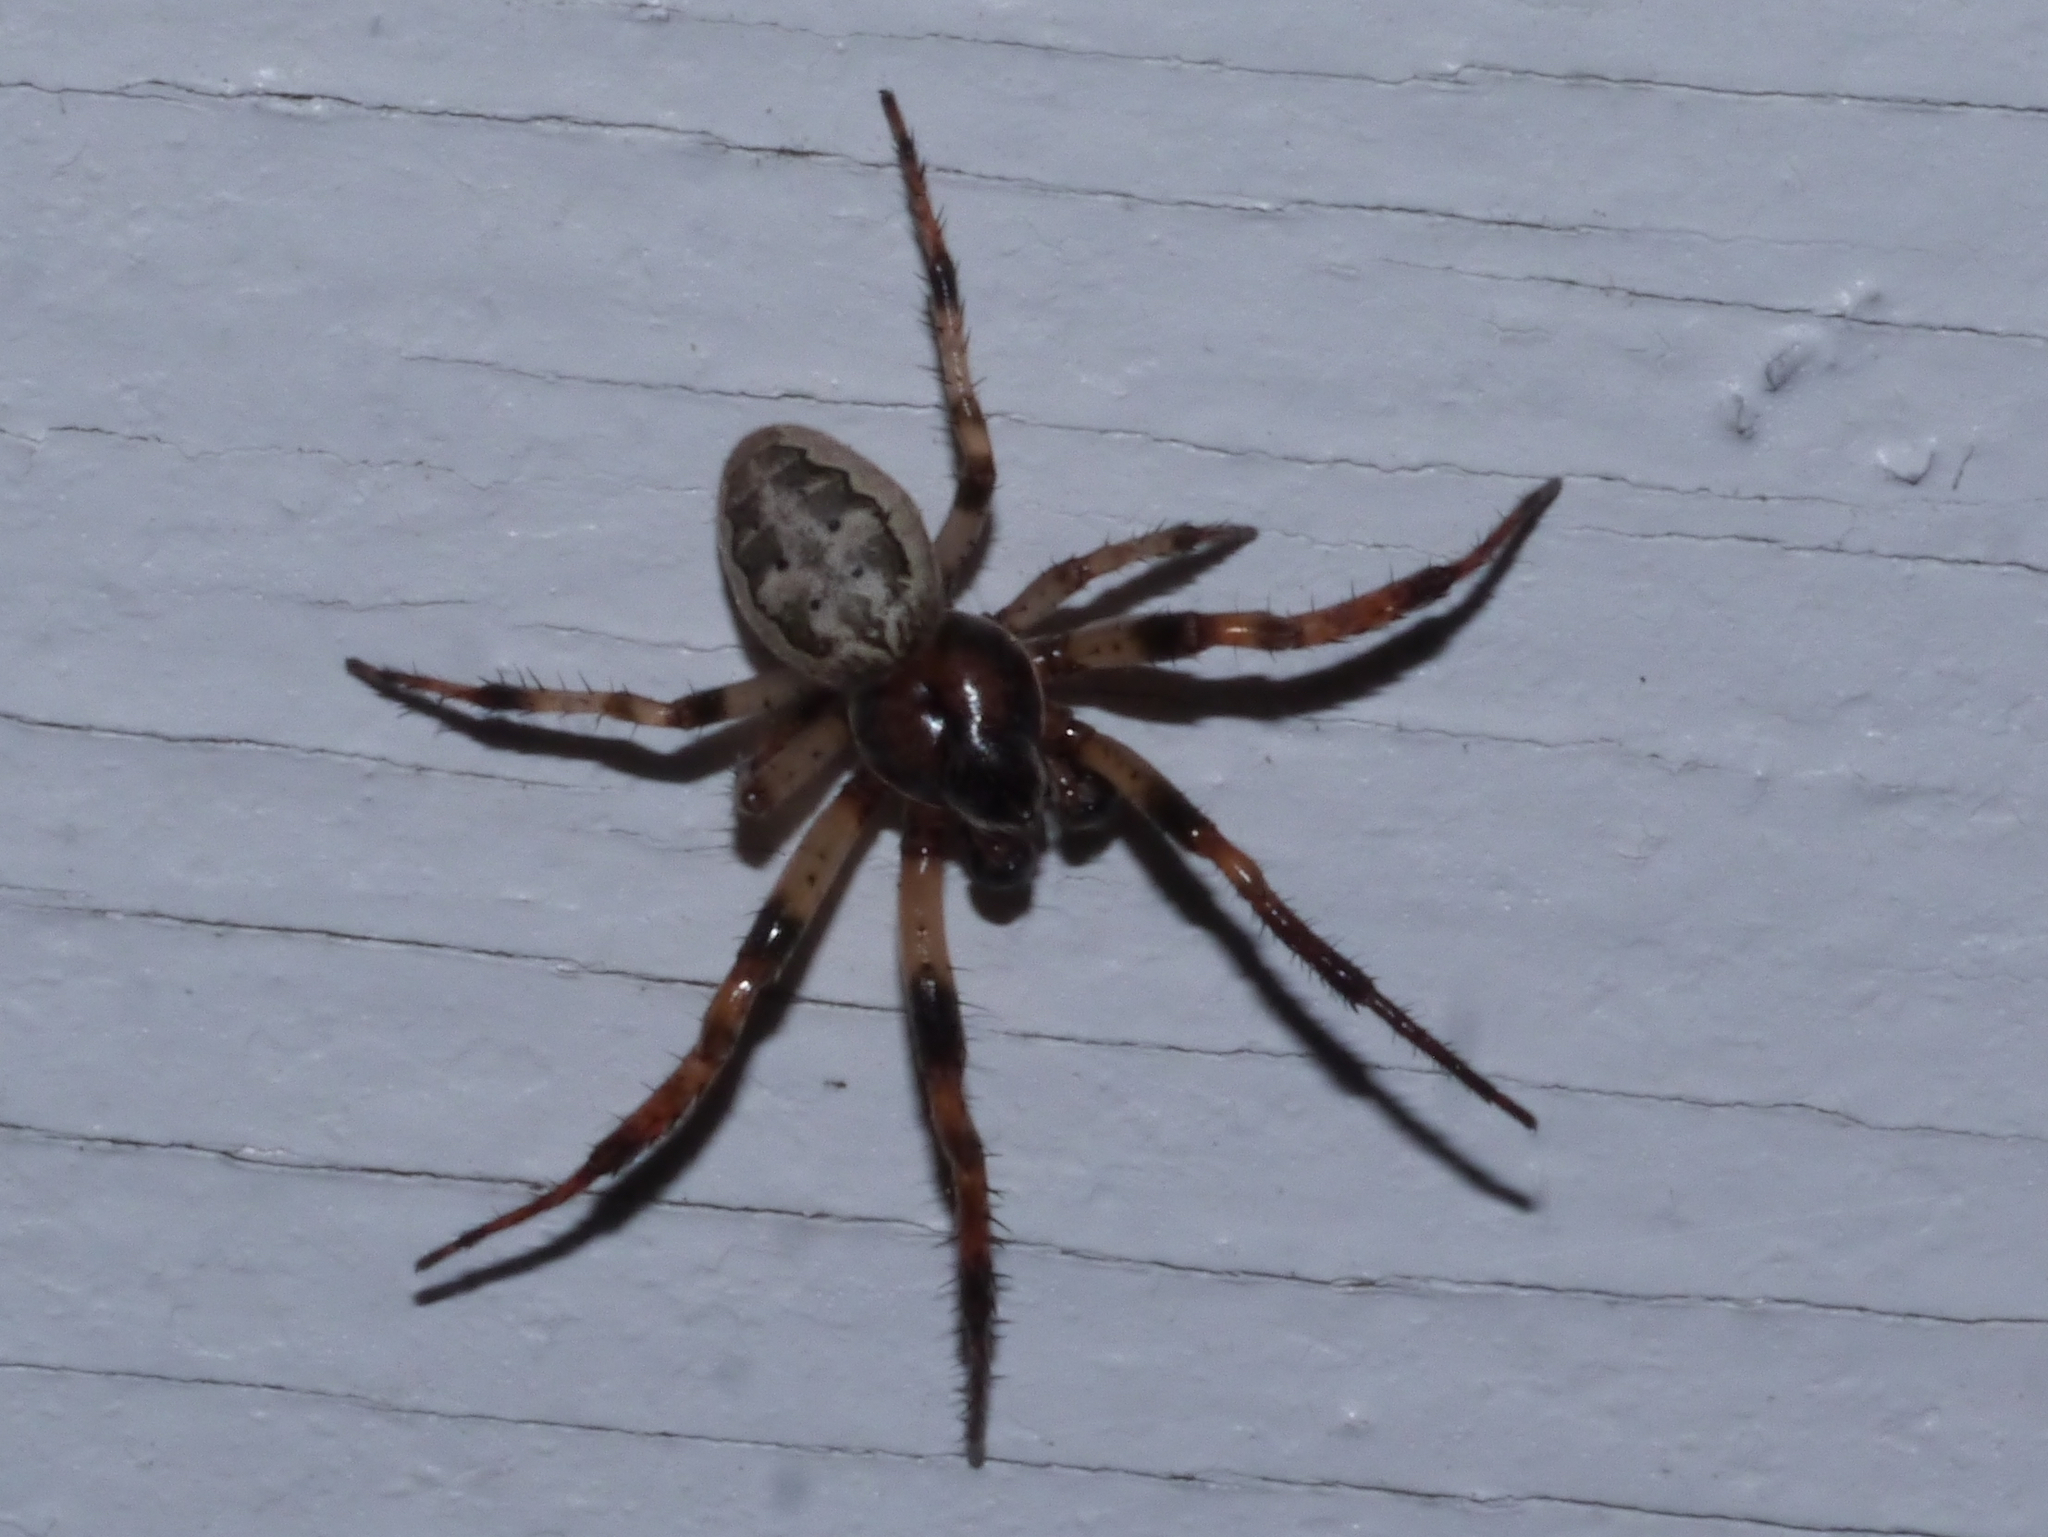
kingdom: Animalia
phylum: Arthropoda
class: Arachnida
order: Araneae
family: Araneidae
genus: Larinioides
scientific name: Larinioides cornutus
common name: Furrow orbweaver
